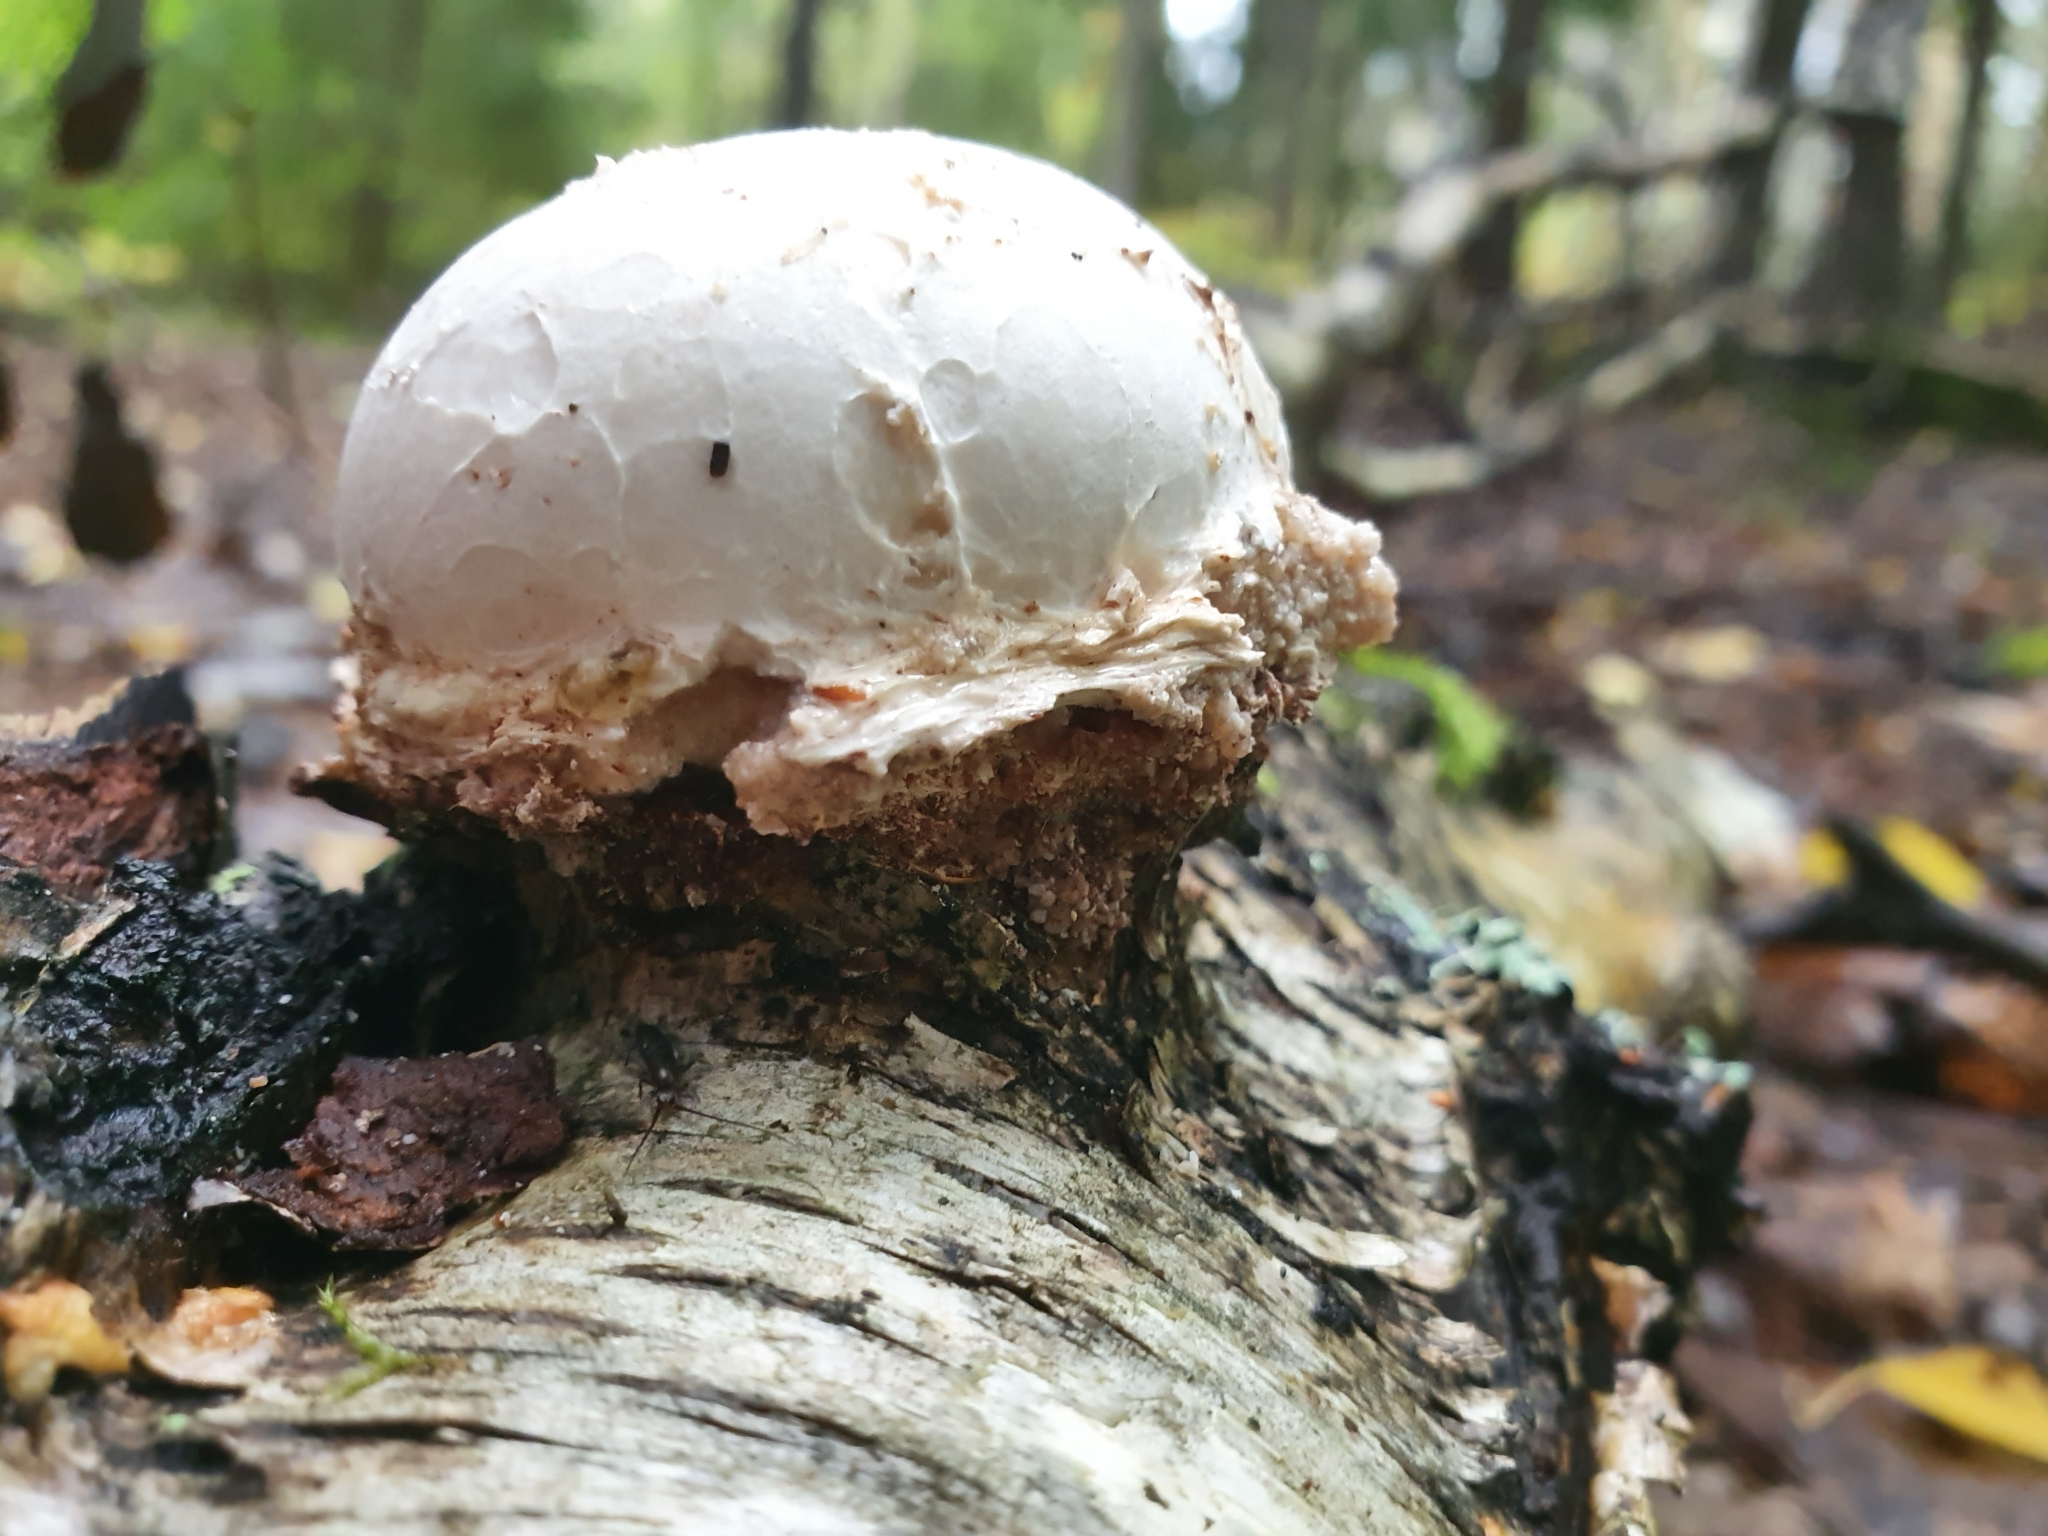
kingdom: Fungi
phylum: Basidiomycota
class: Agaricomycetes
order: Polyporales
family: Fomitopsidaceae
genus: Fomitopsis
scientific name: Fomitopsis betulina
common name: Birch polypore
